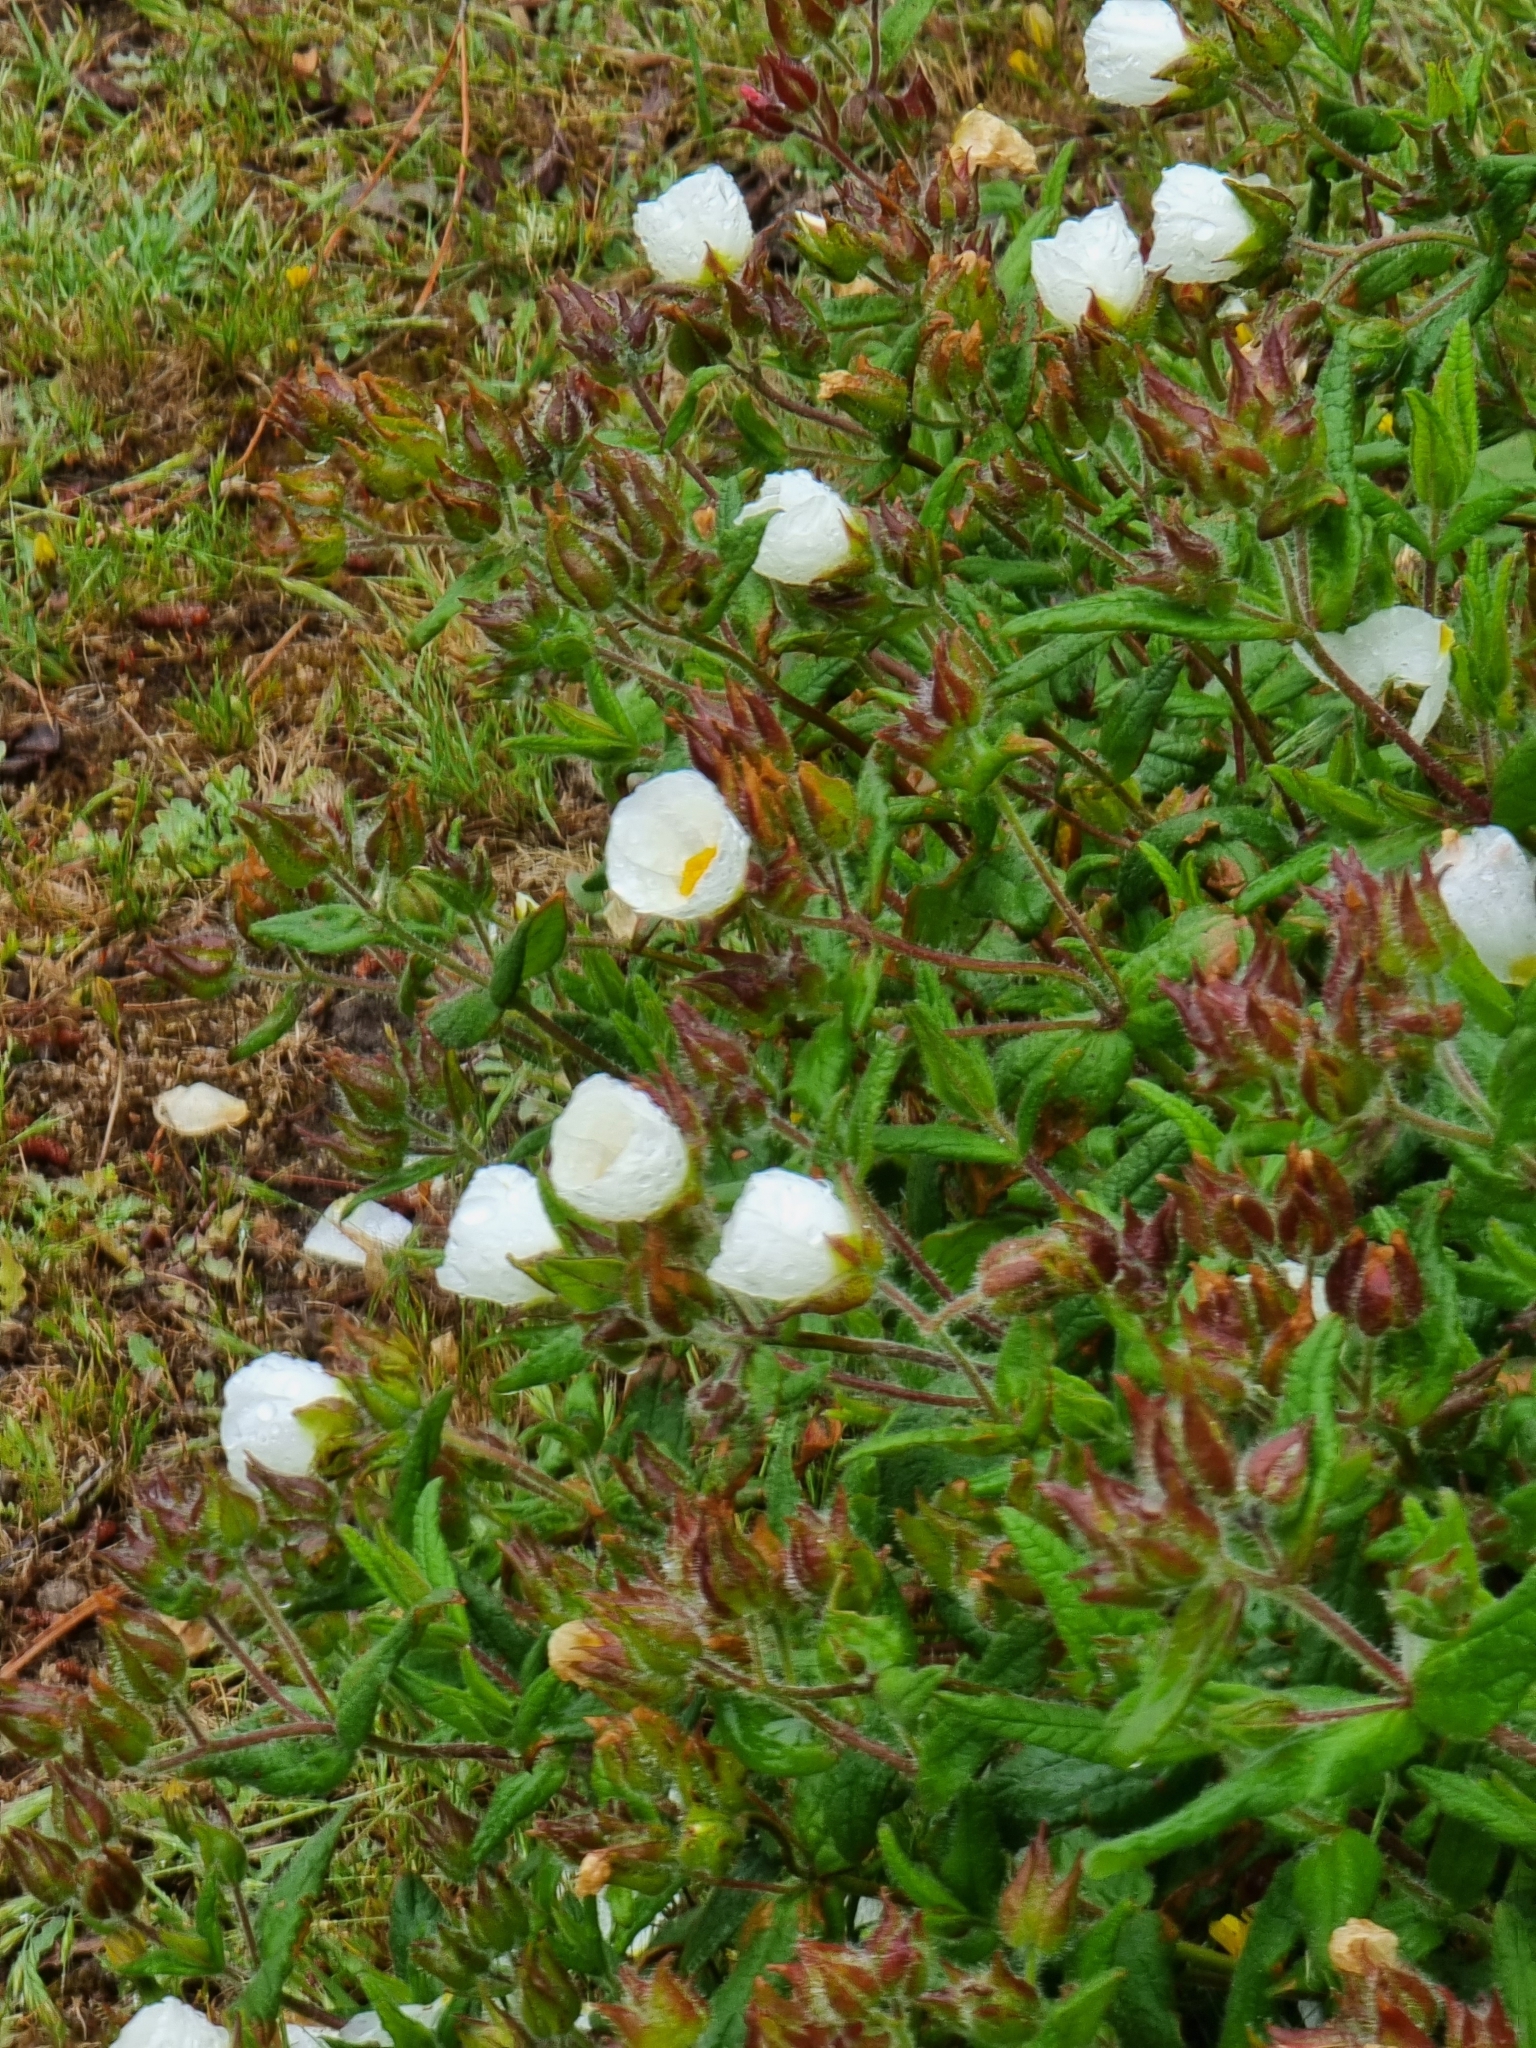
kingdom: Plantae
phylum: Tracheophyta
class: Magnoliopsida
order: Malvales
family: Cistaceae
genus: Cistus
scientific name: Cistus inflatus
